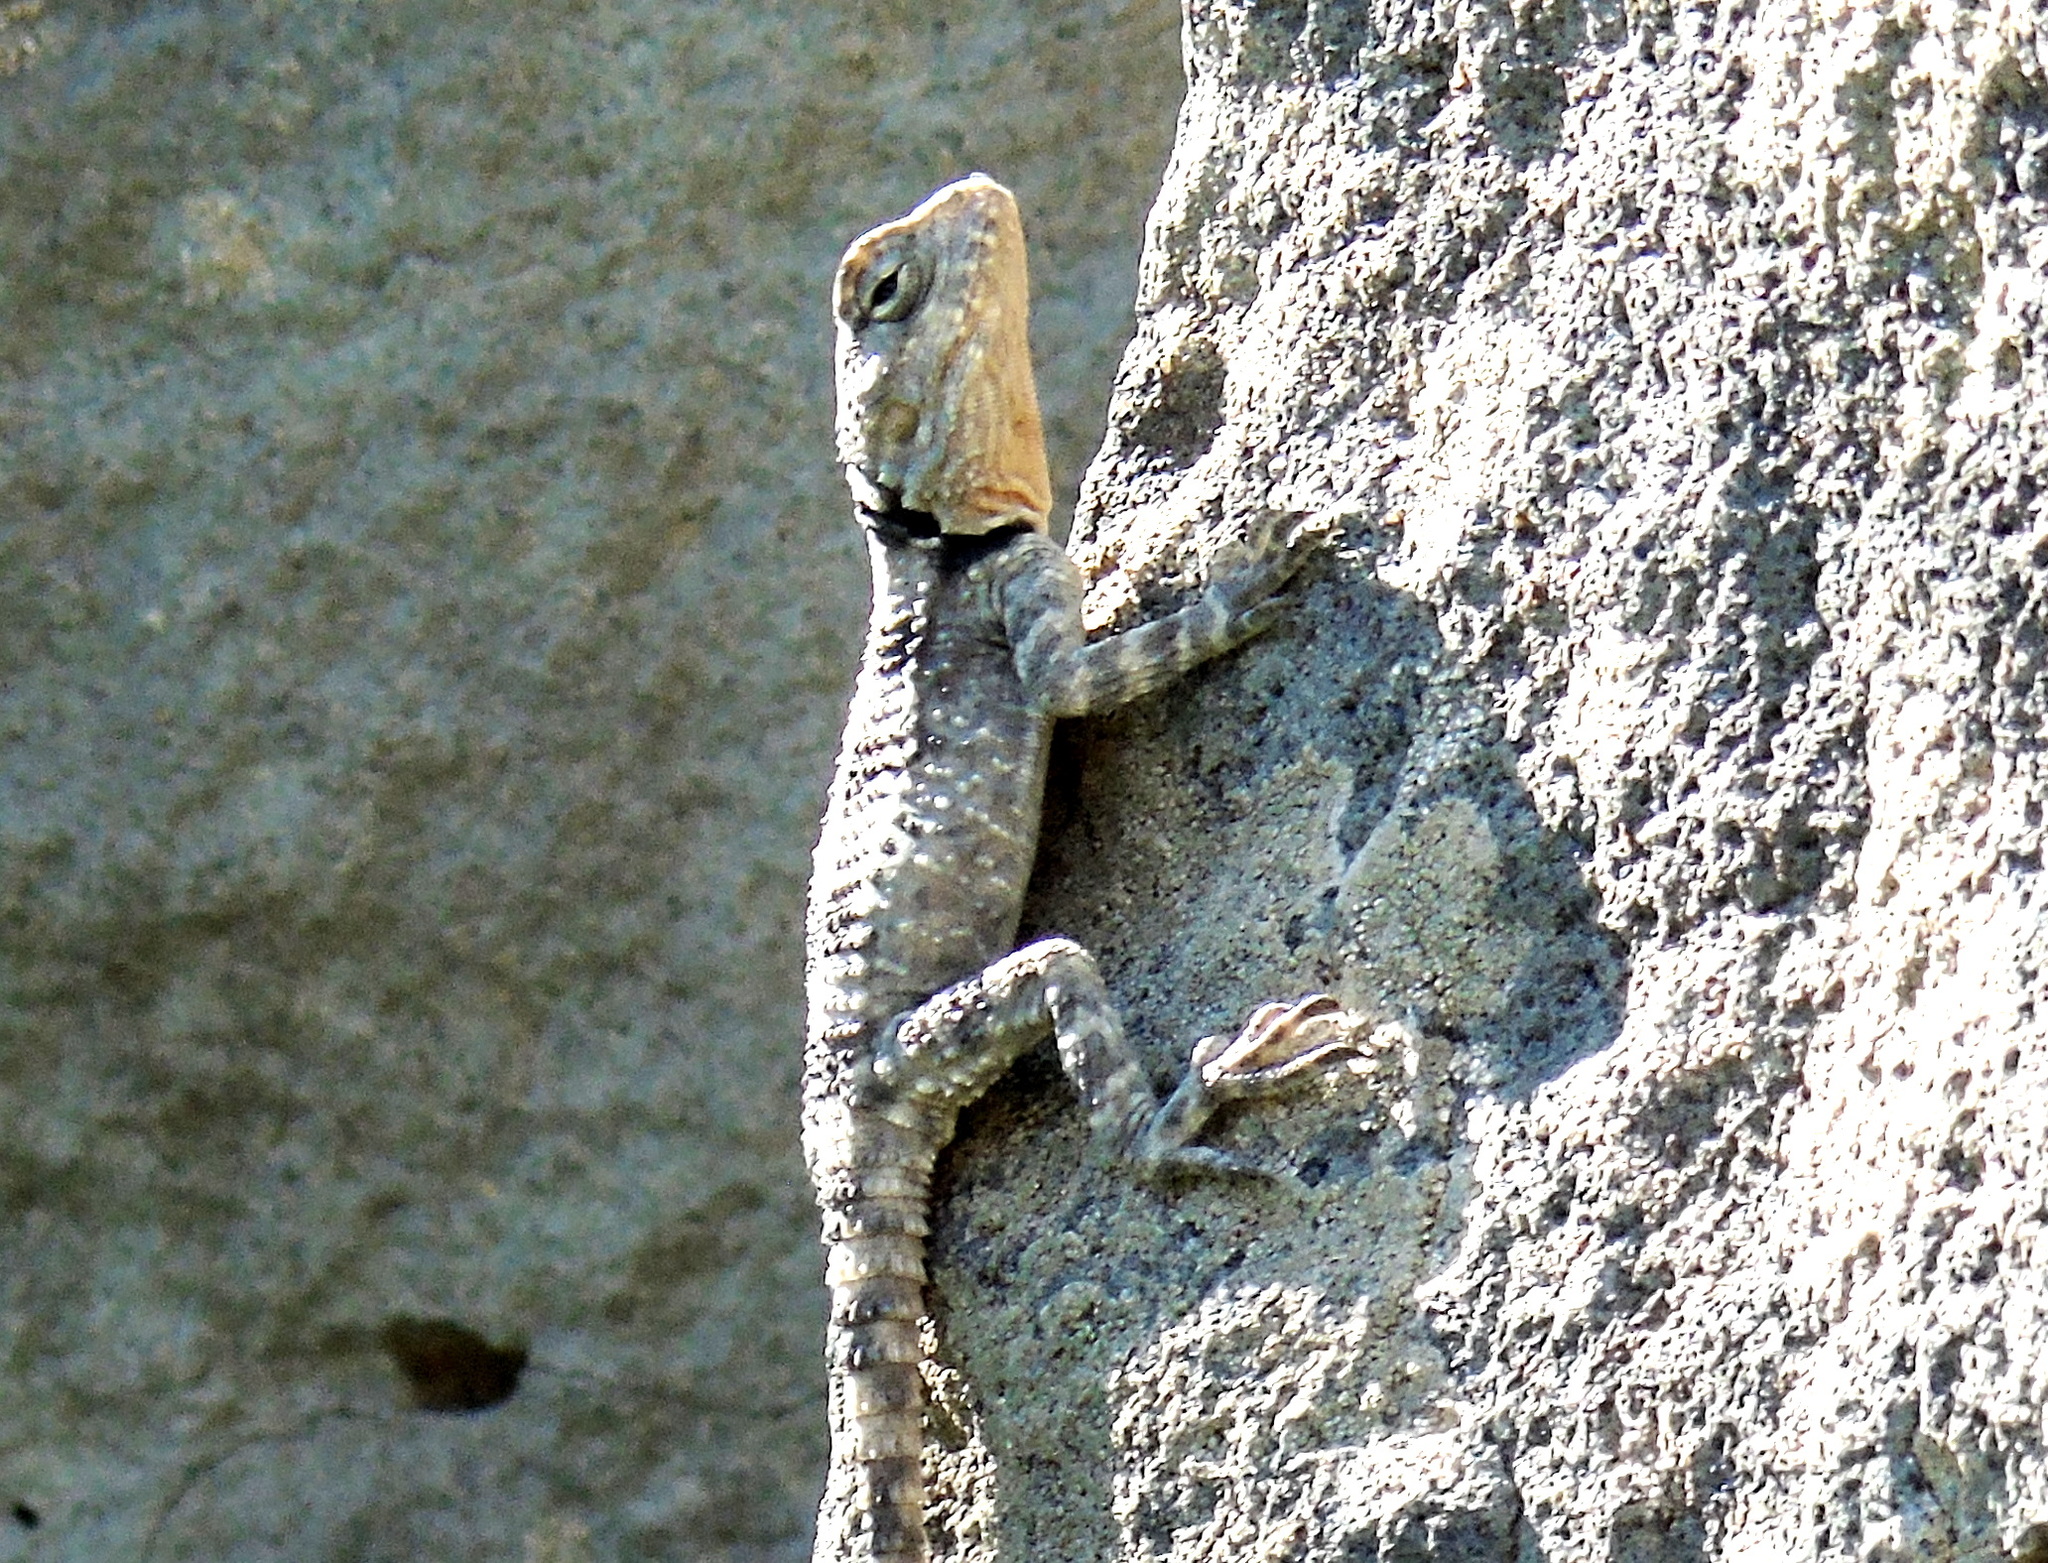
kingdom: Animalia
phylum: Chordata
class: Squamata
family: Agamidae
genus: Stellagama
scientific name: Stellagama stellio
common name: Starred agama
